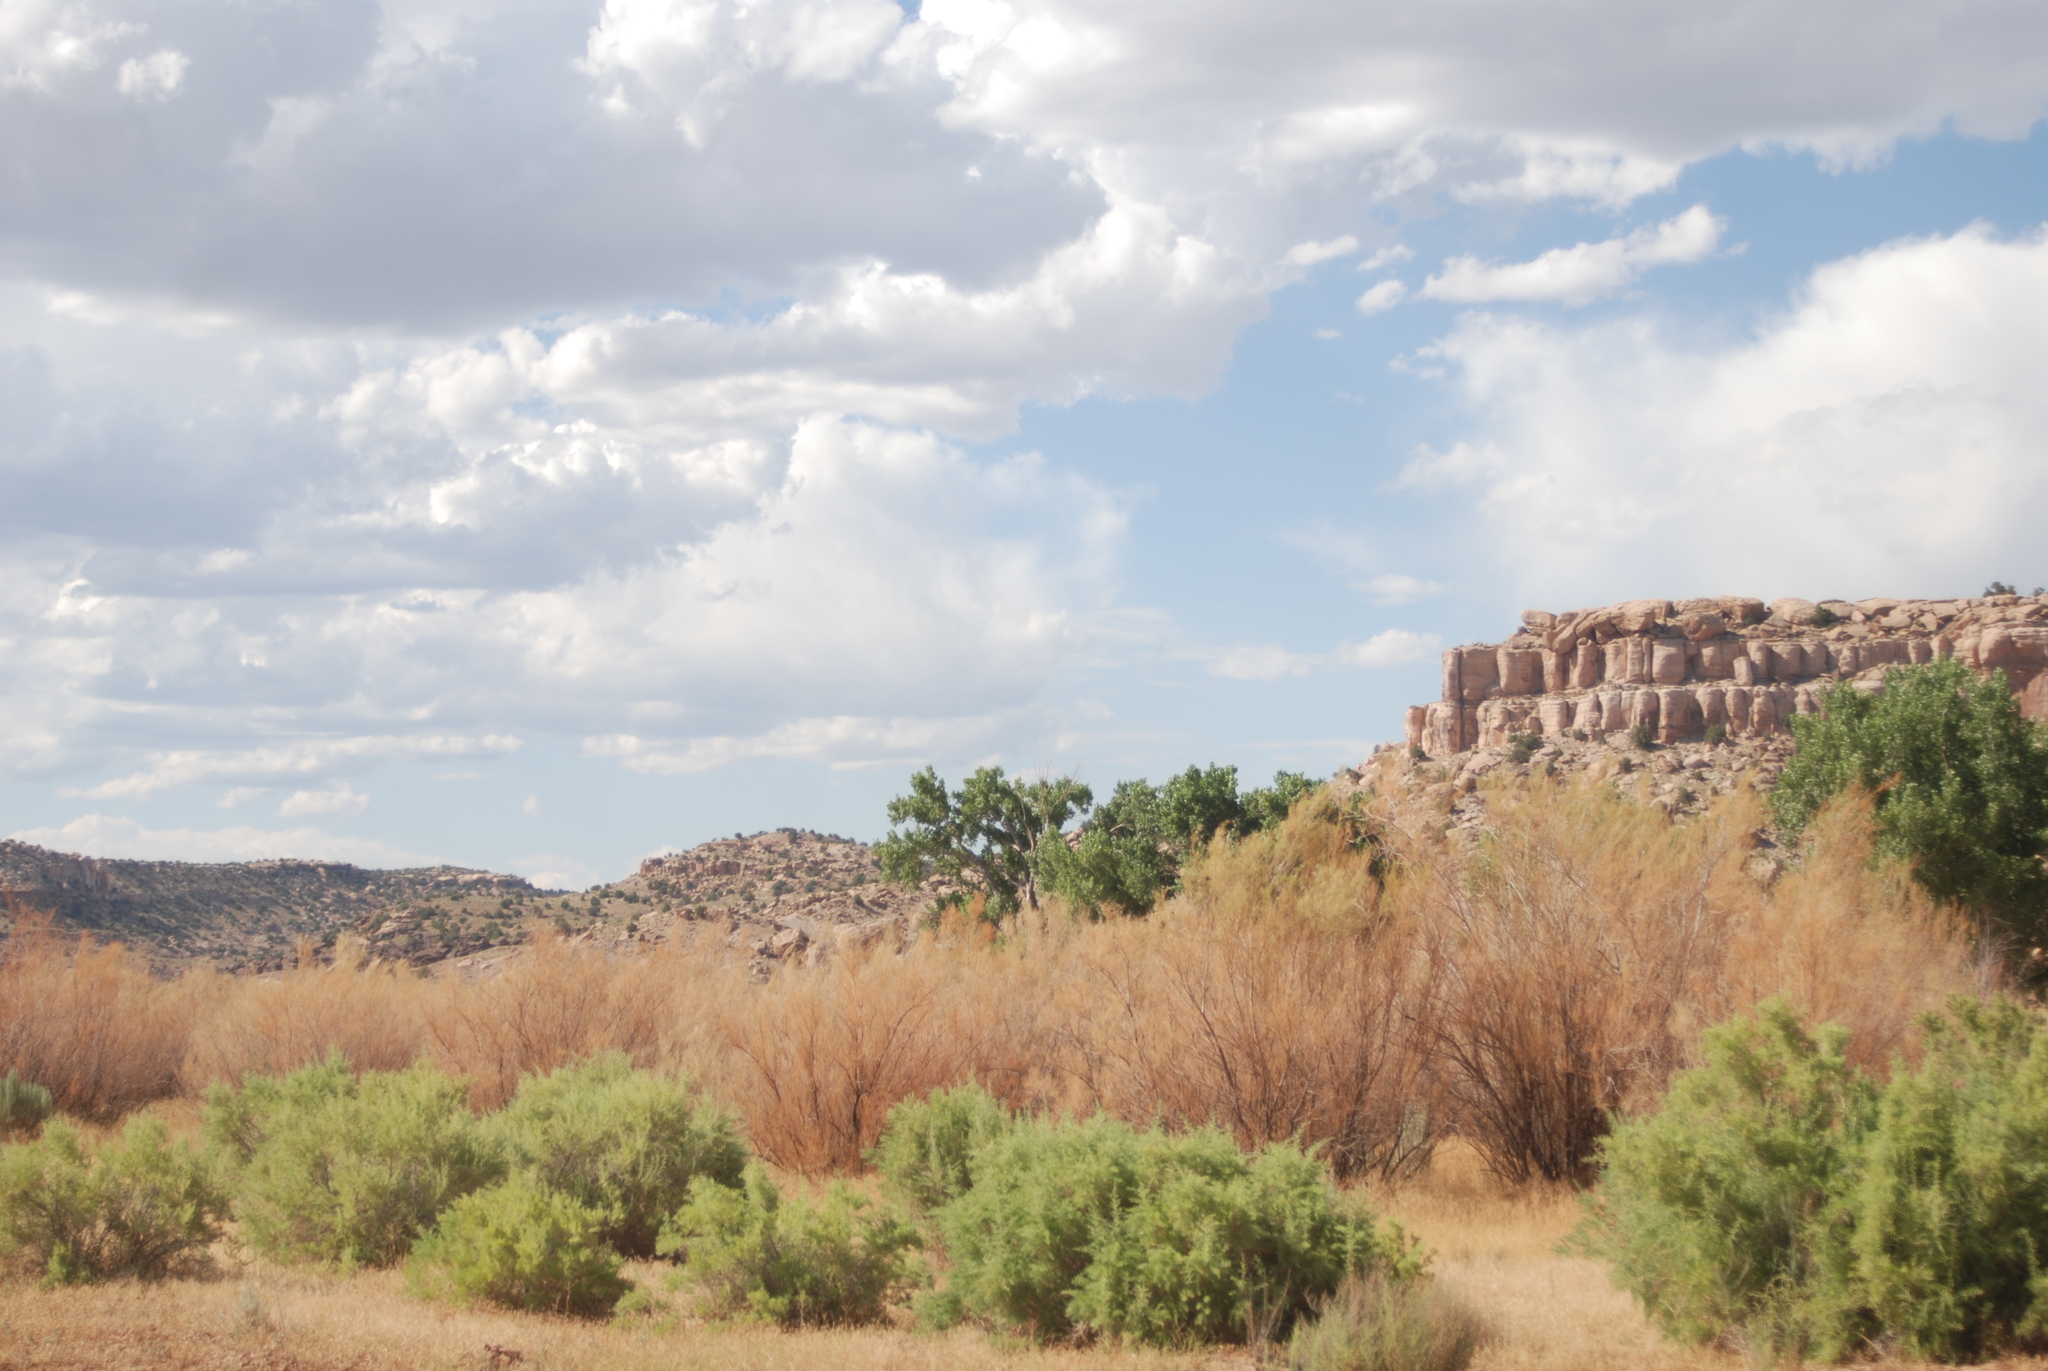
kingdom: Plantae
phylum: Tracheophyta
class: Magnoliopsida
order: Caryophyllales
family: Tamaricaceae
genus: Tamarix
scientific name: Tamarix
